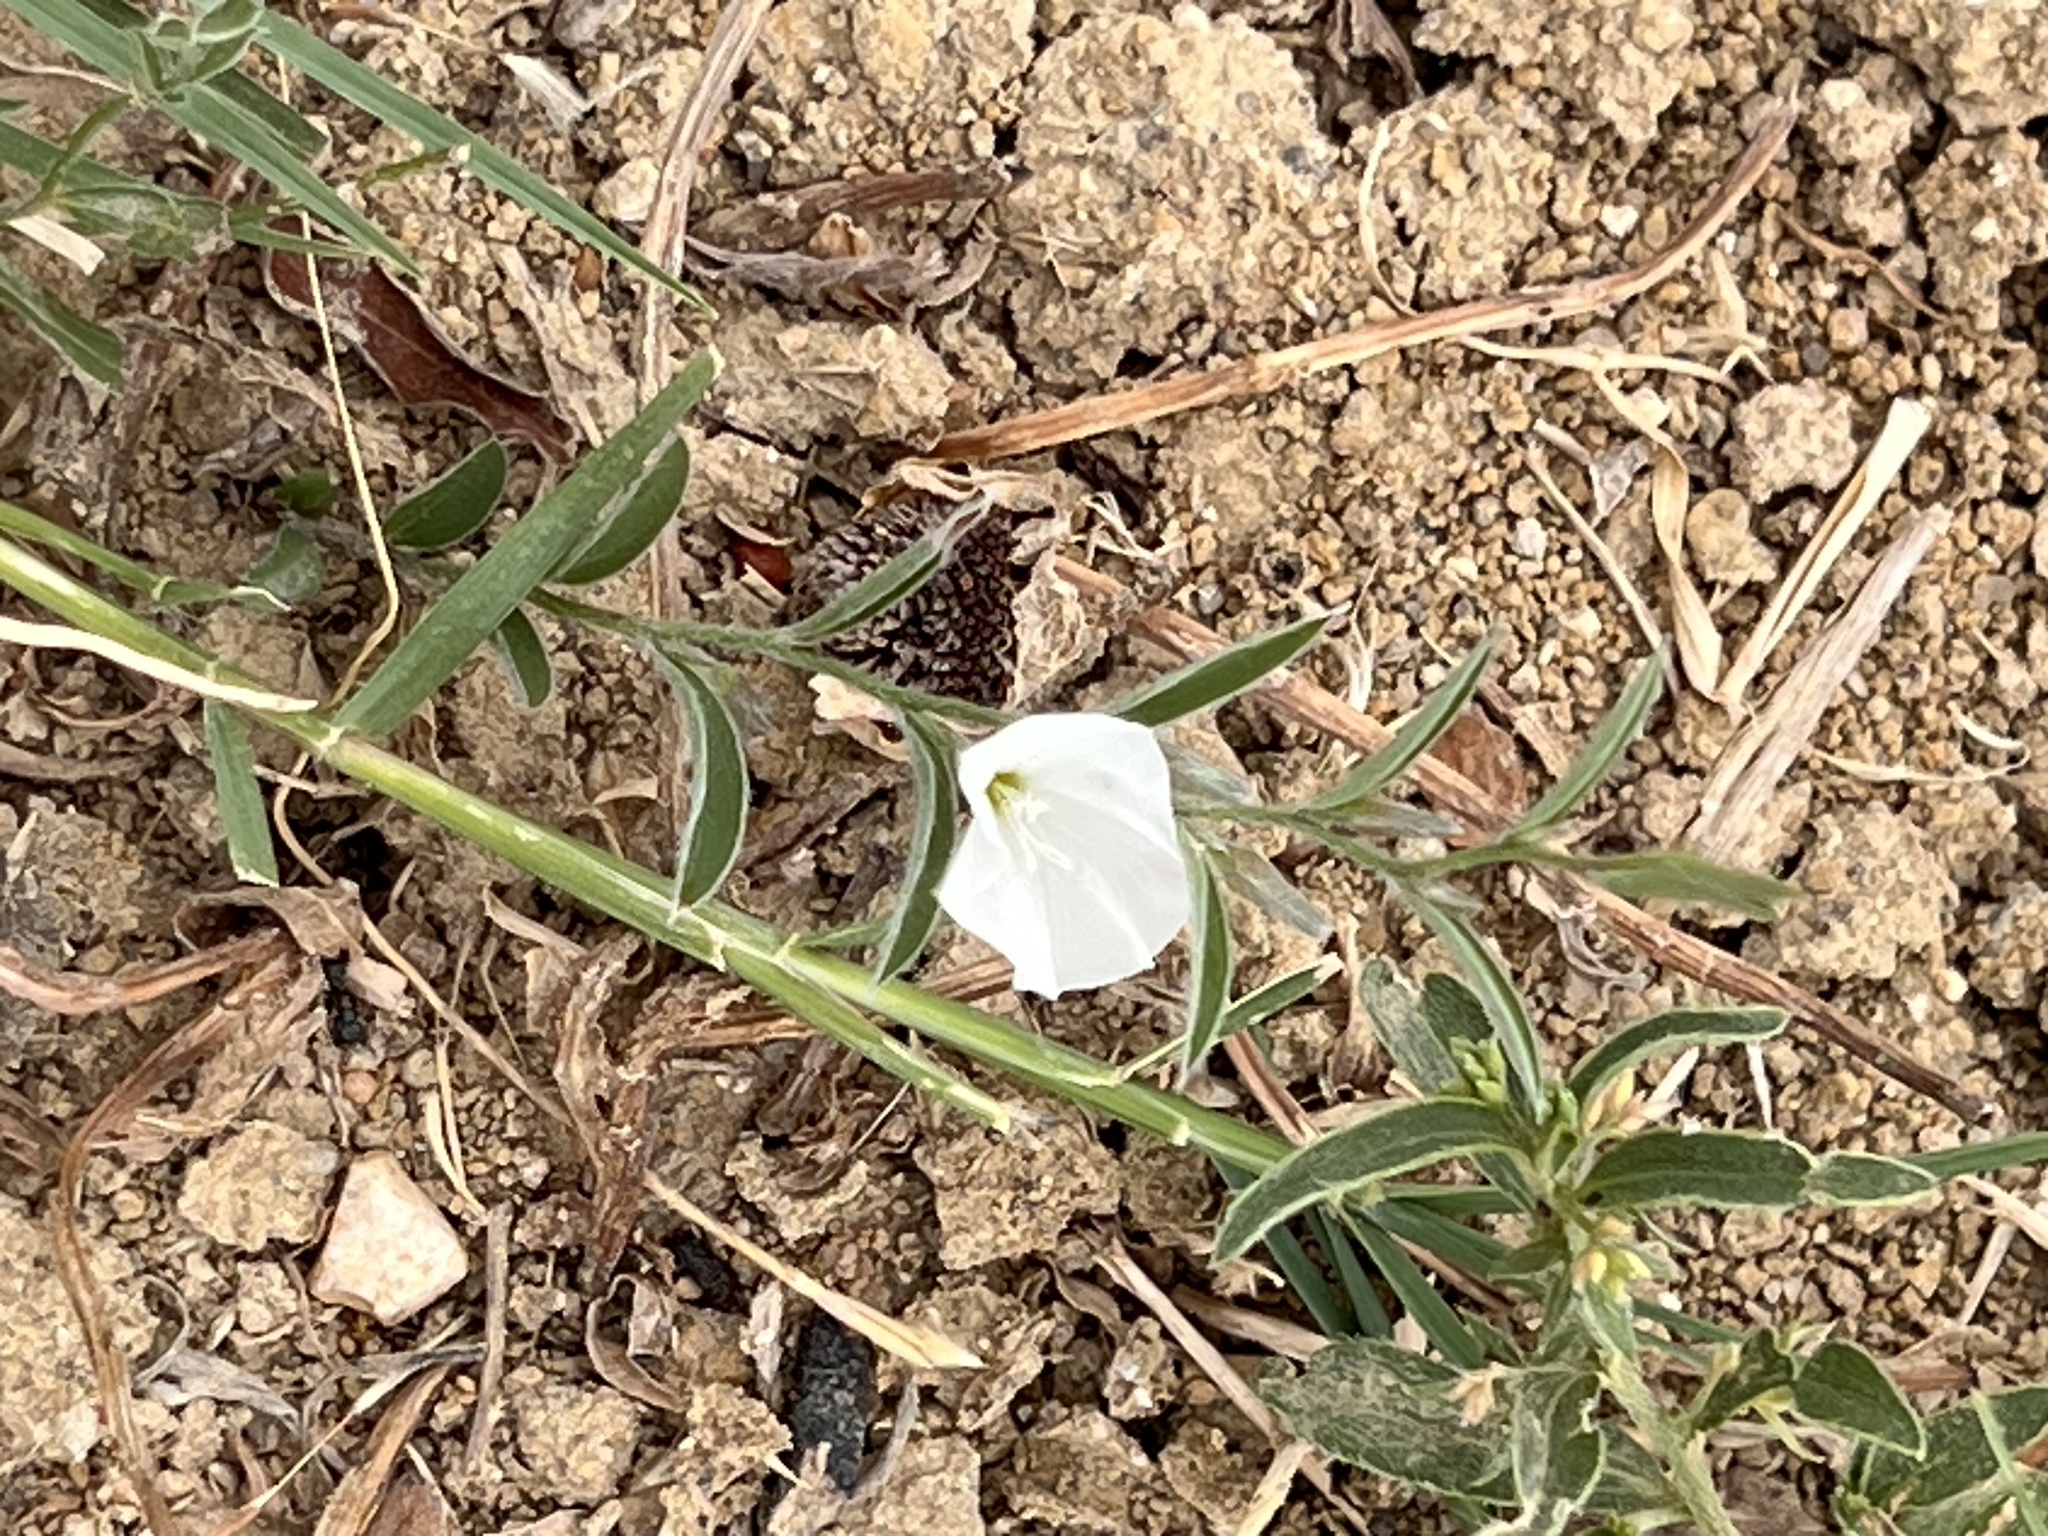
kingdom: Plantae
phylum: Tracheophyta
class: Magnoliopsida
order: Solanales
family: Convolvulaceae
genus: Evolvulus
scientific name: Evolvulus sericeus
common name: Blue dots
